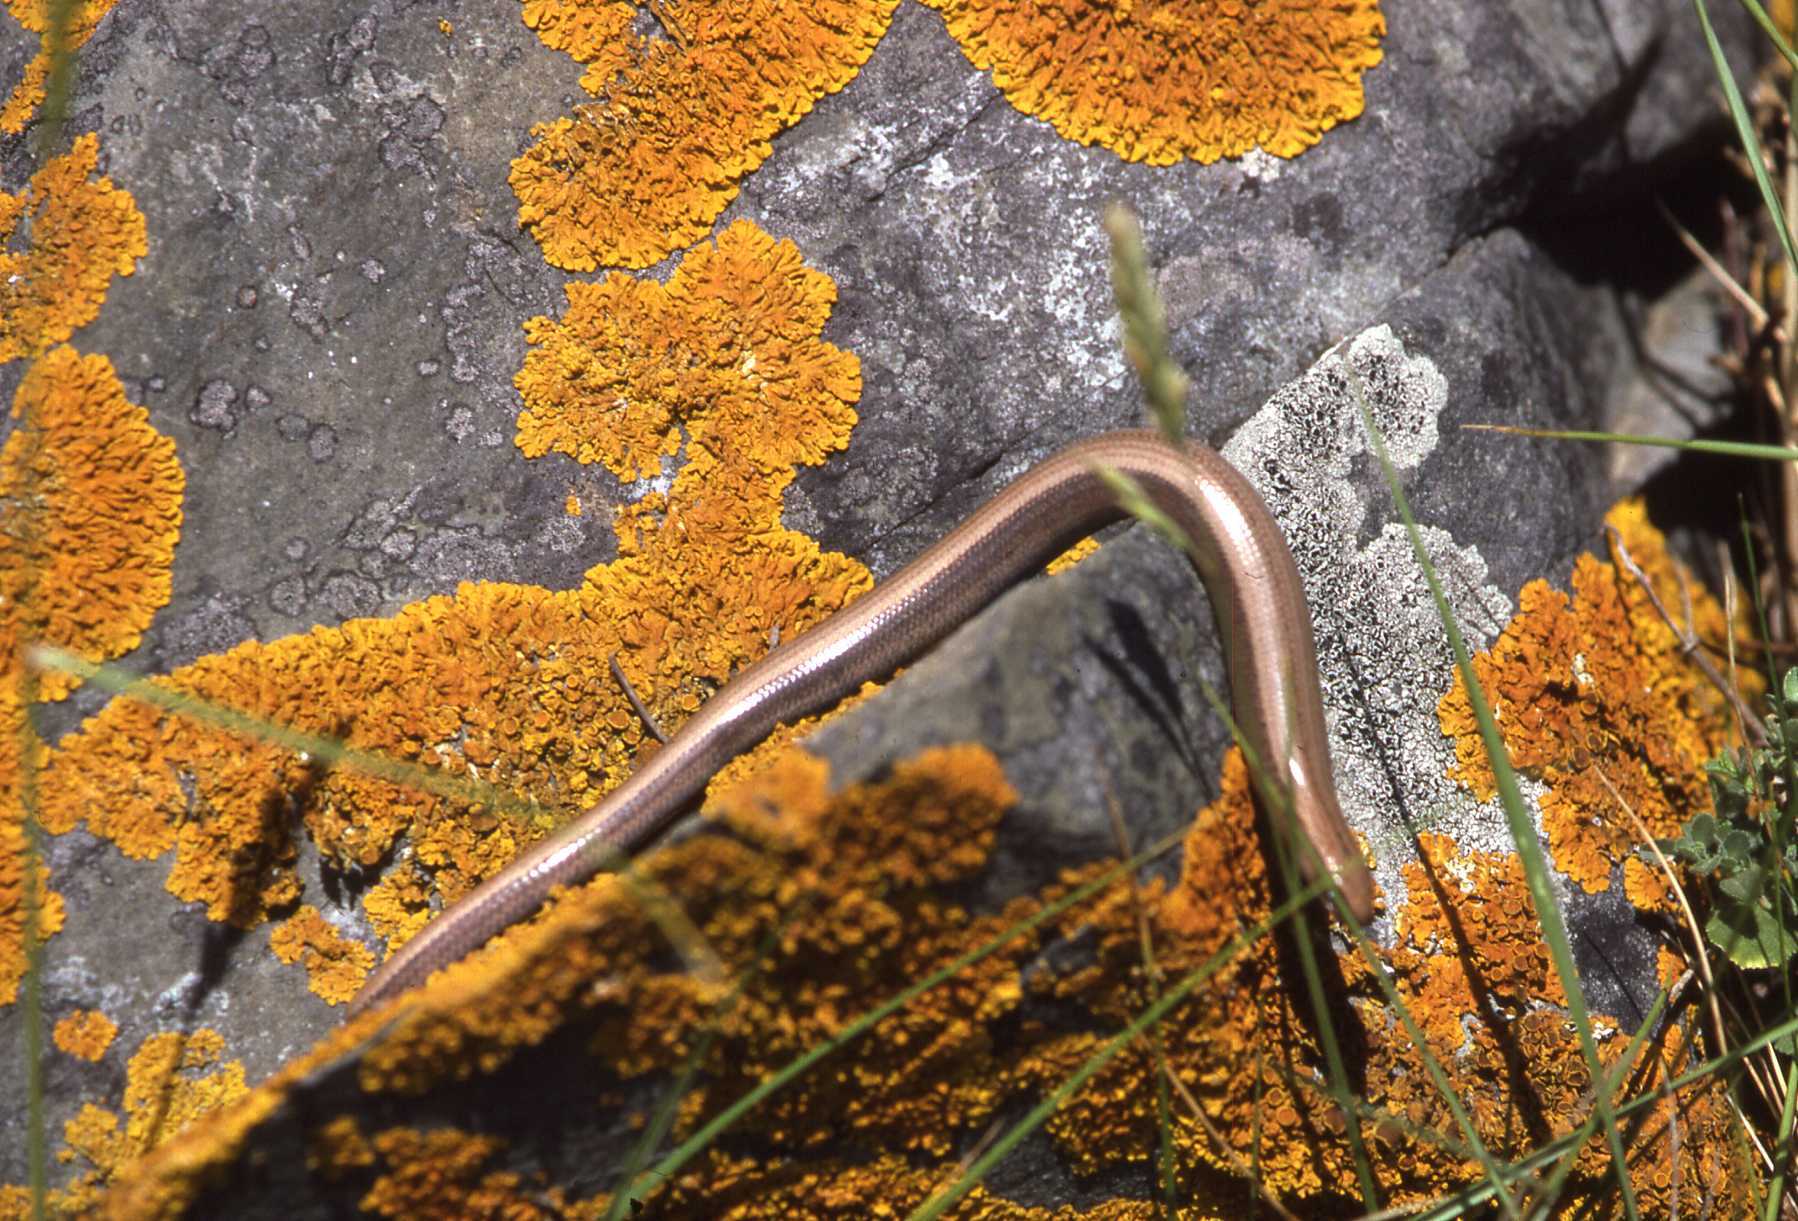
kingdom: Animalia
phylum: Chordata
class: Squamata
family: Anguidae
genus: Anguis
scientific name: Anguis fragilis
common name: Slow worm
